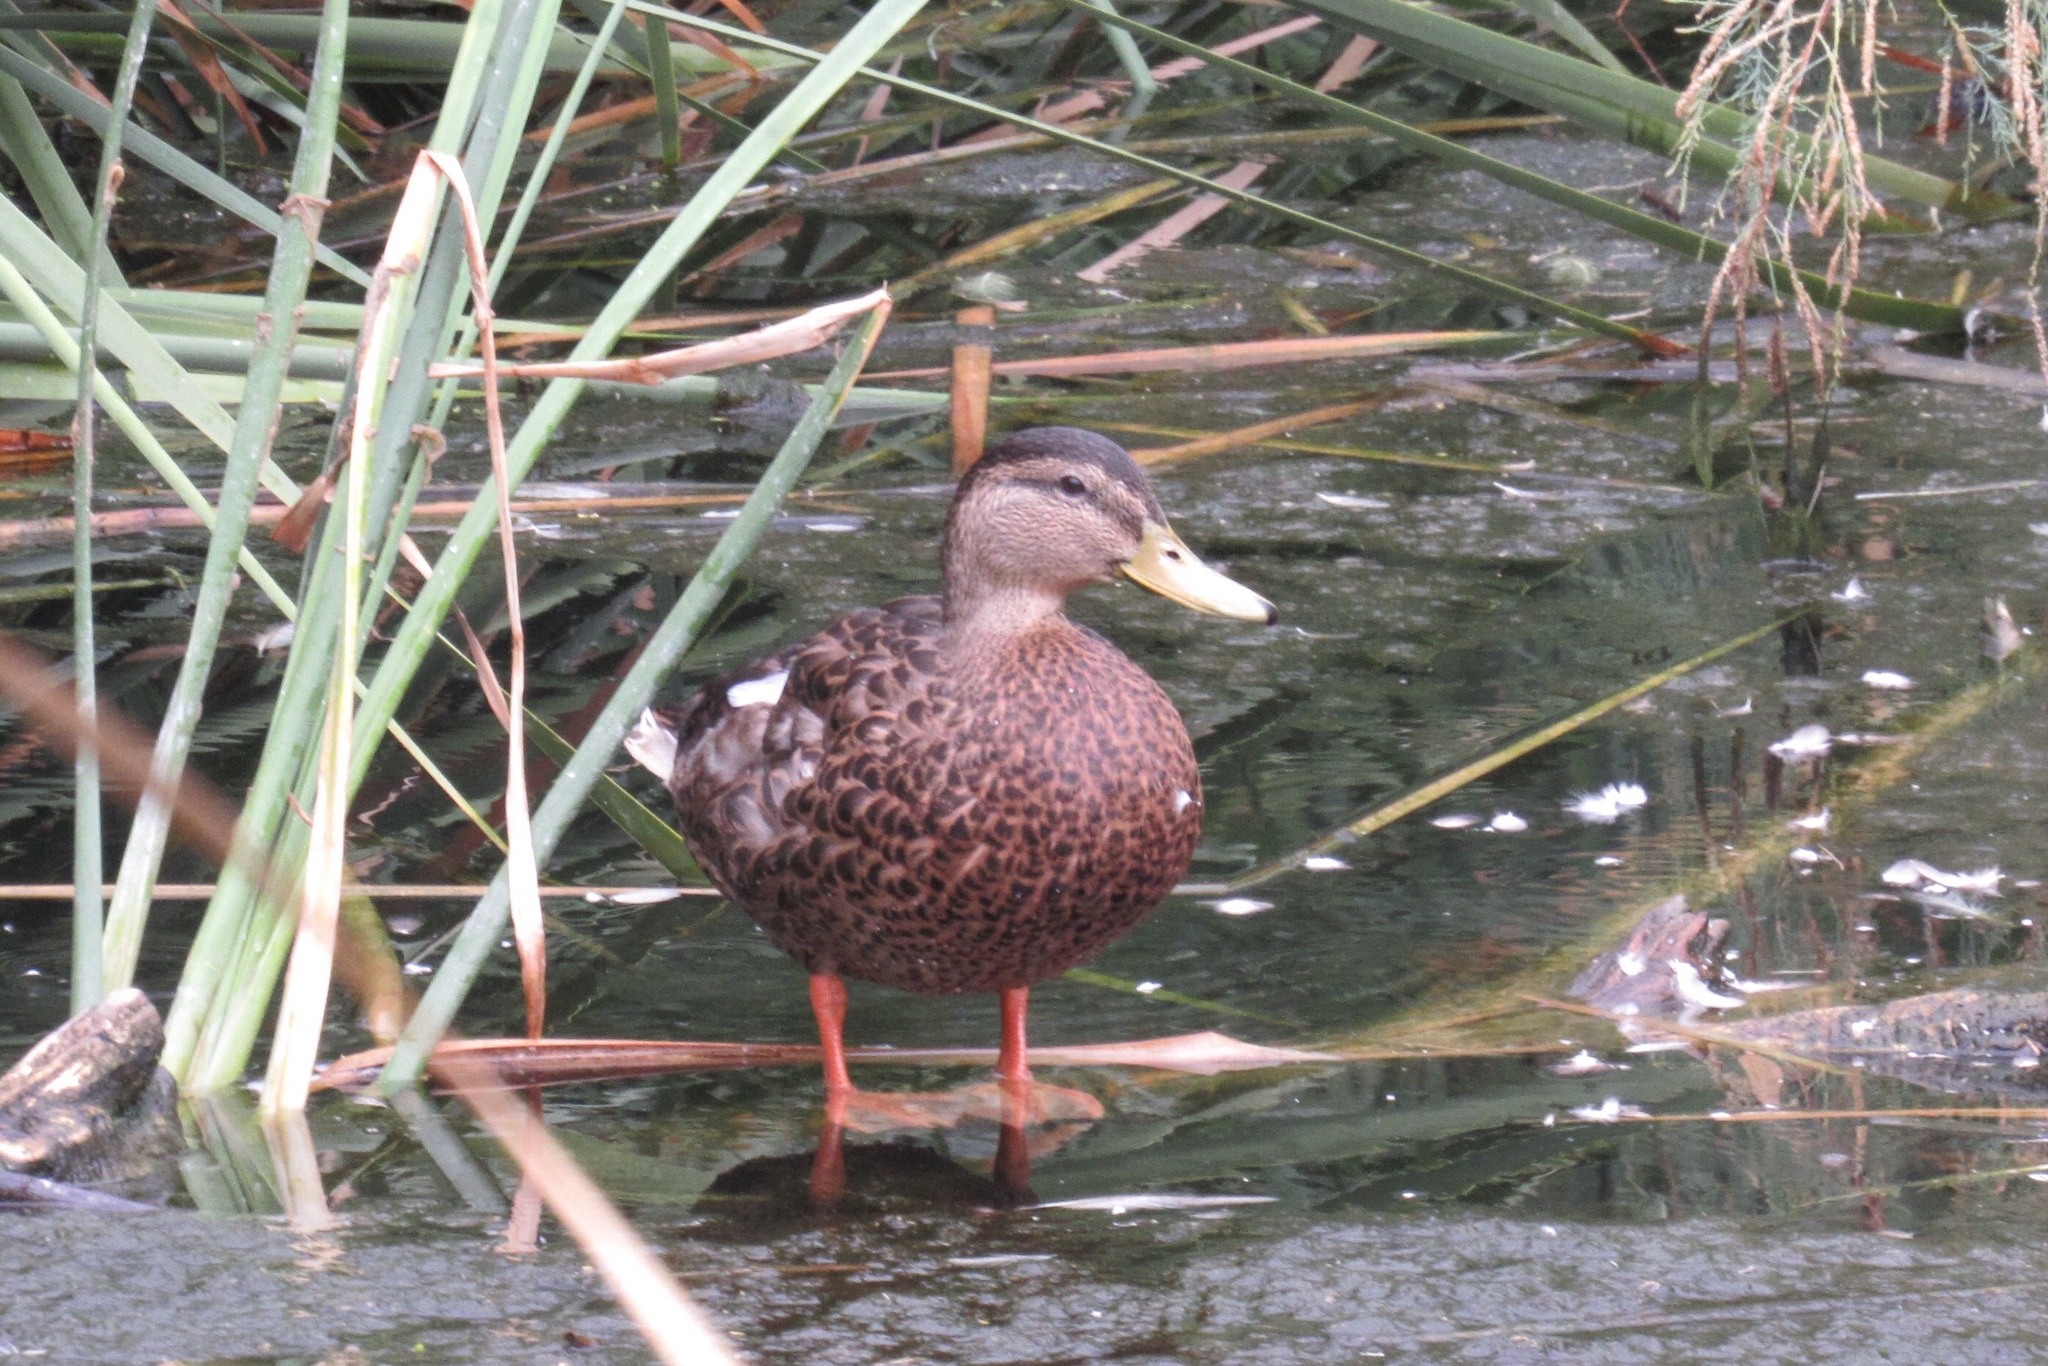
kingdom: Animalia
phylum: Chordata
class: Aves
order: Anseriformes
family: Anatidae
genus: Anas
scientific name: Anas platyrhynchos
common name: Mallard
